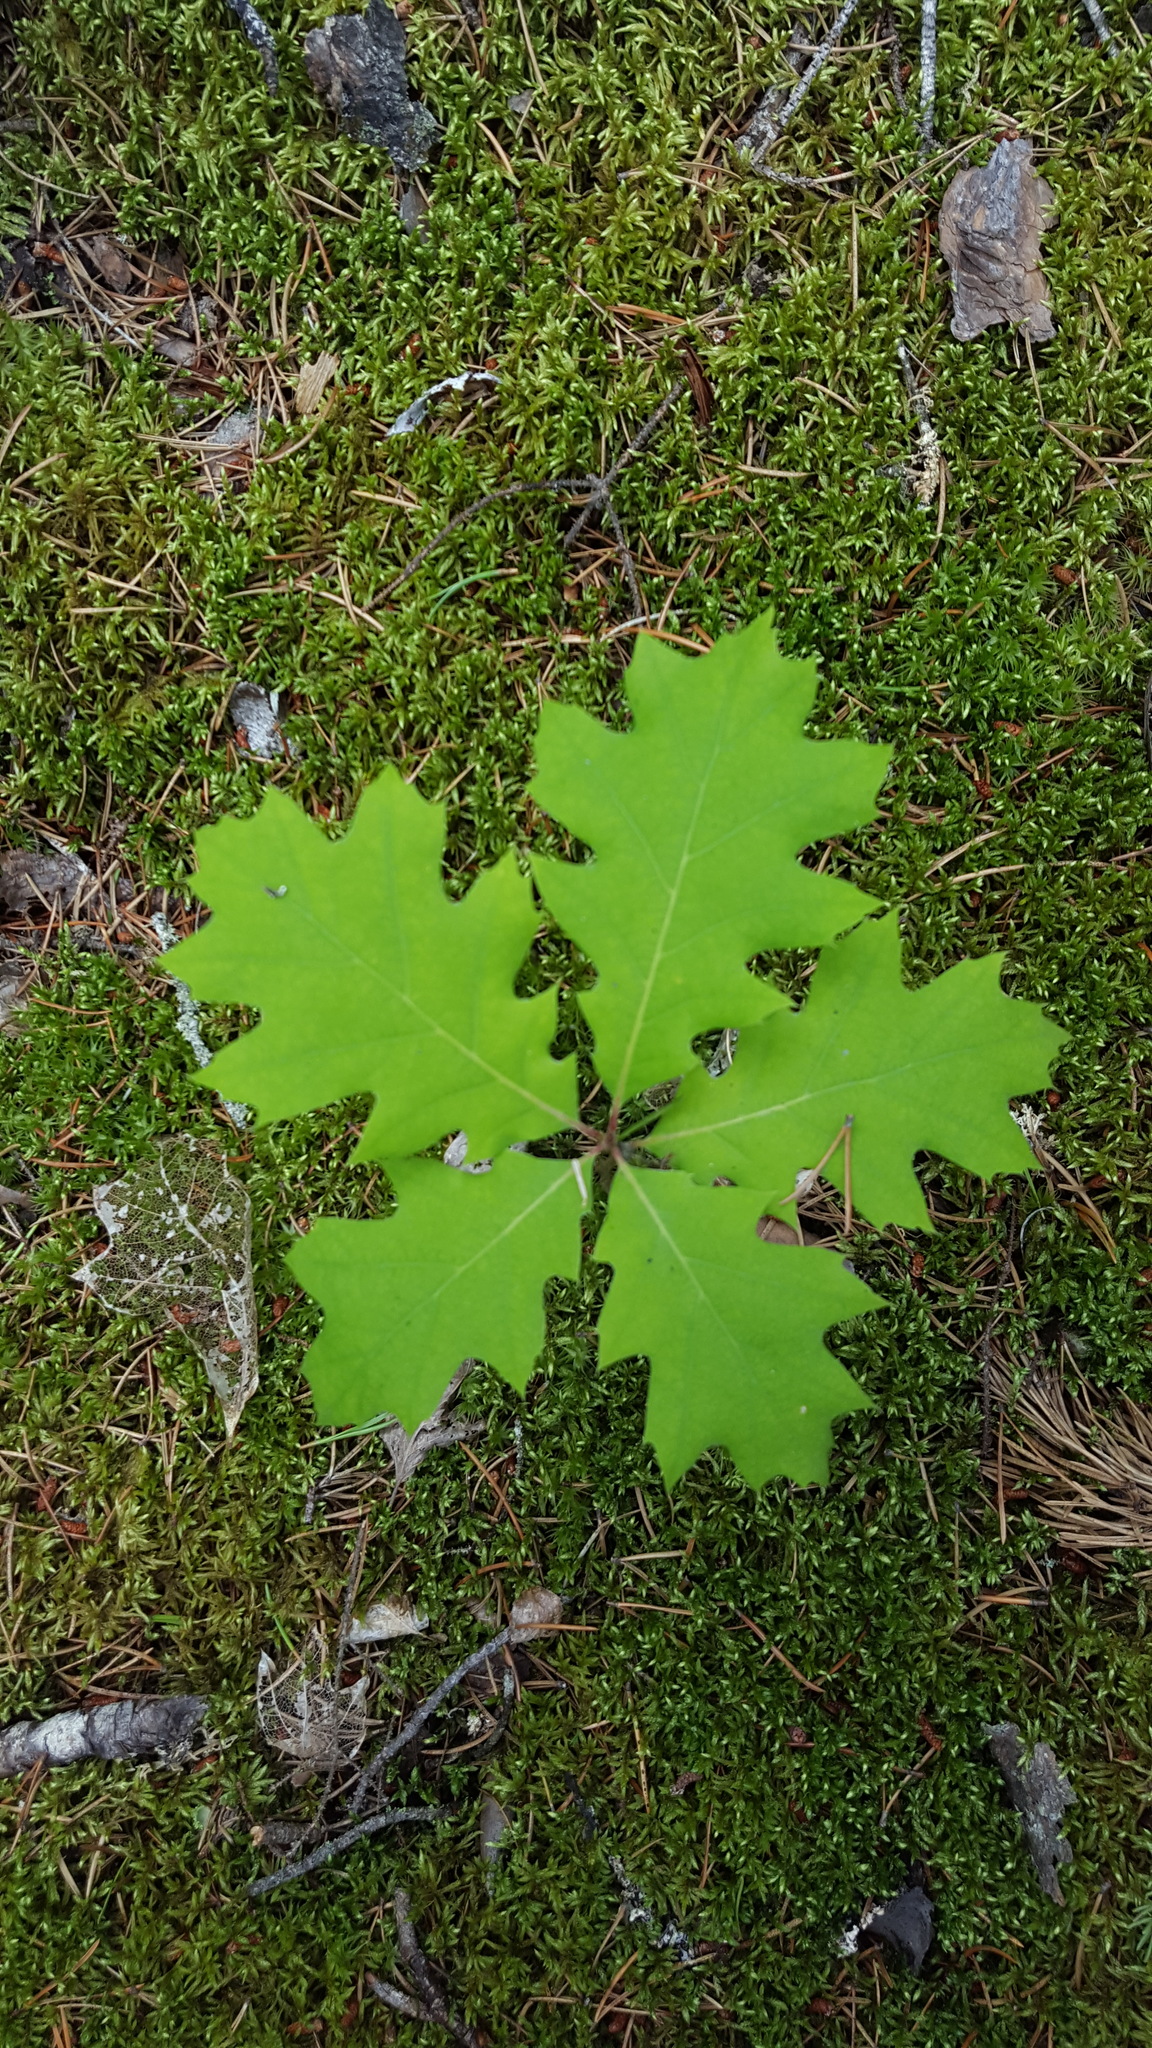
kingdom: Plantae
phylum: Tracheophyta
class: Magnoliopsida
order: Fagales
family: Fagaceae
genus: Quercus
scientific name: Quercus rubra
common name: Red oak
